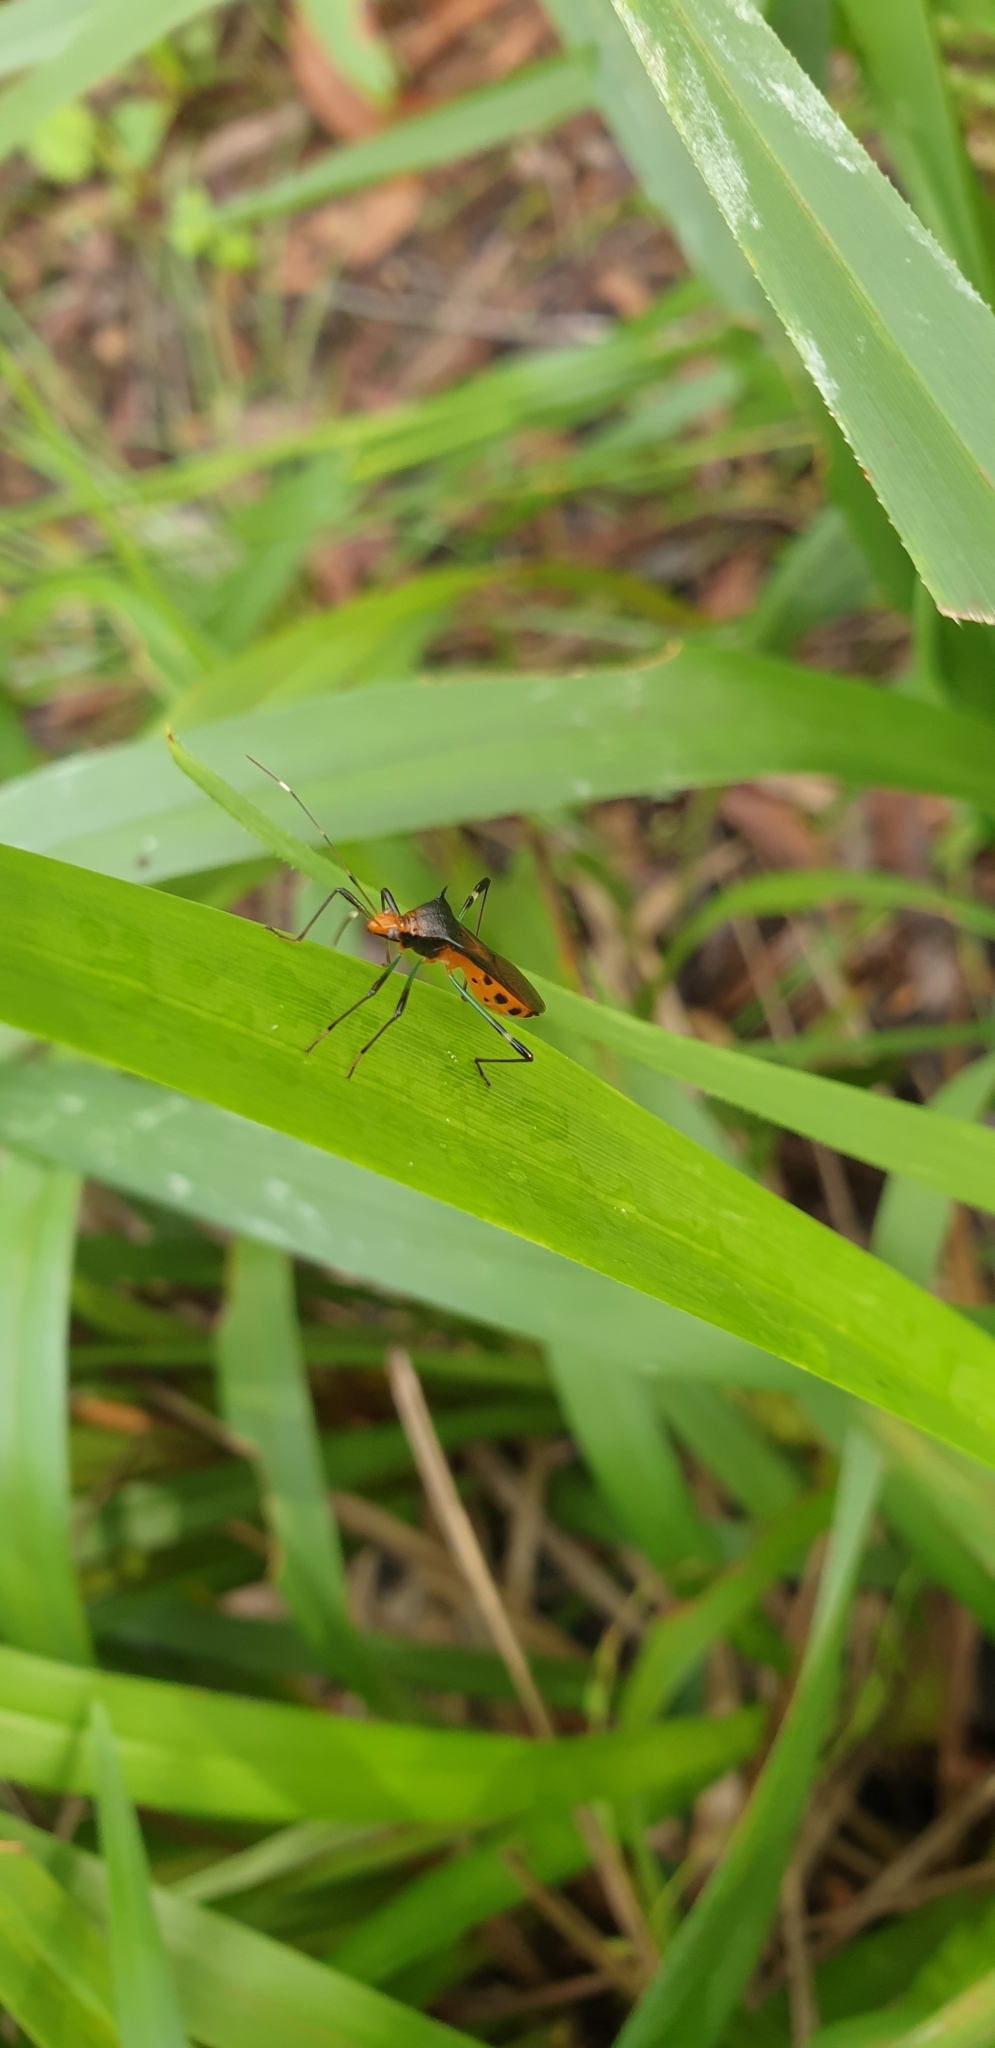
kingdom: Animalia
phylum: Arthropoda
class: Insecta
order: Hemiptera
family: Alydidae
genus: Noliphus
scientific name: Noliphus erythrocephalus
